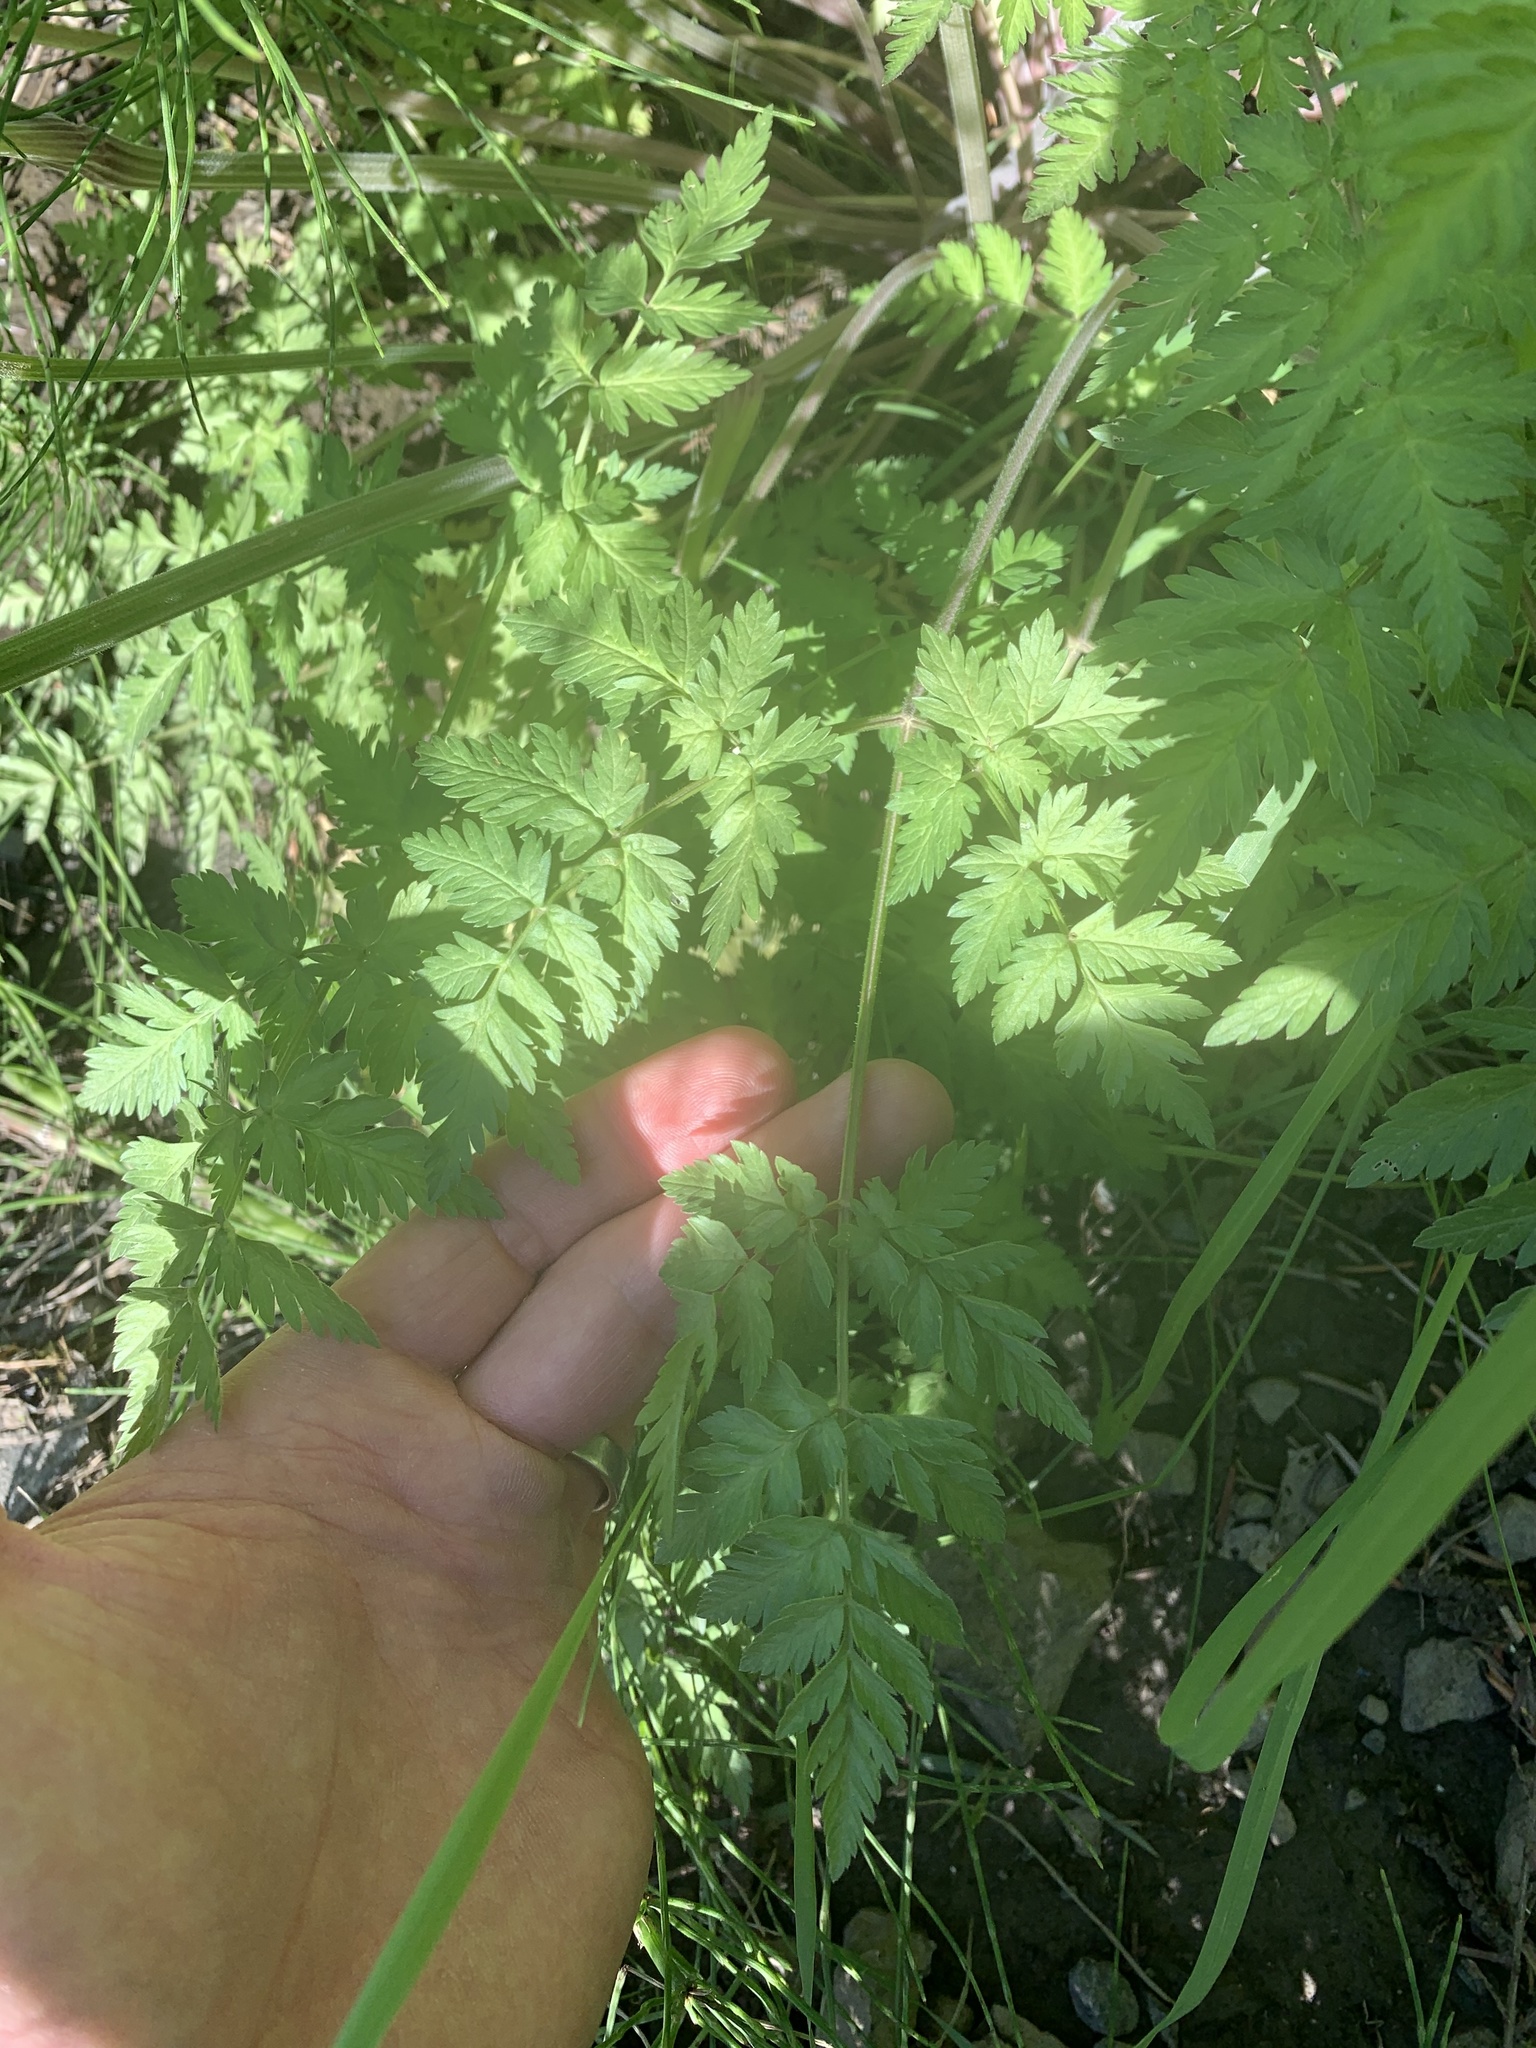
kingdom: Plantae
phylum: Tracheophyta
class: Magnoliopsida
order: Apiales
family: Apiaceae
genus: Anthriscus
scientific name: Anthriscus sylvestris
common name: Cow parsley
